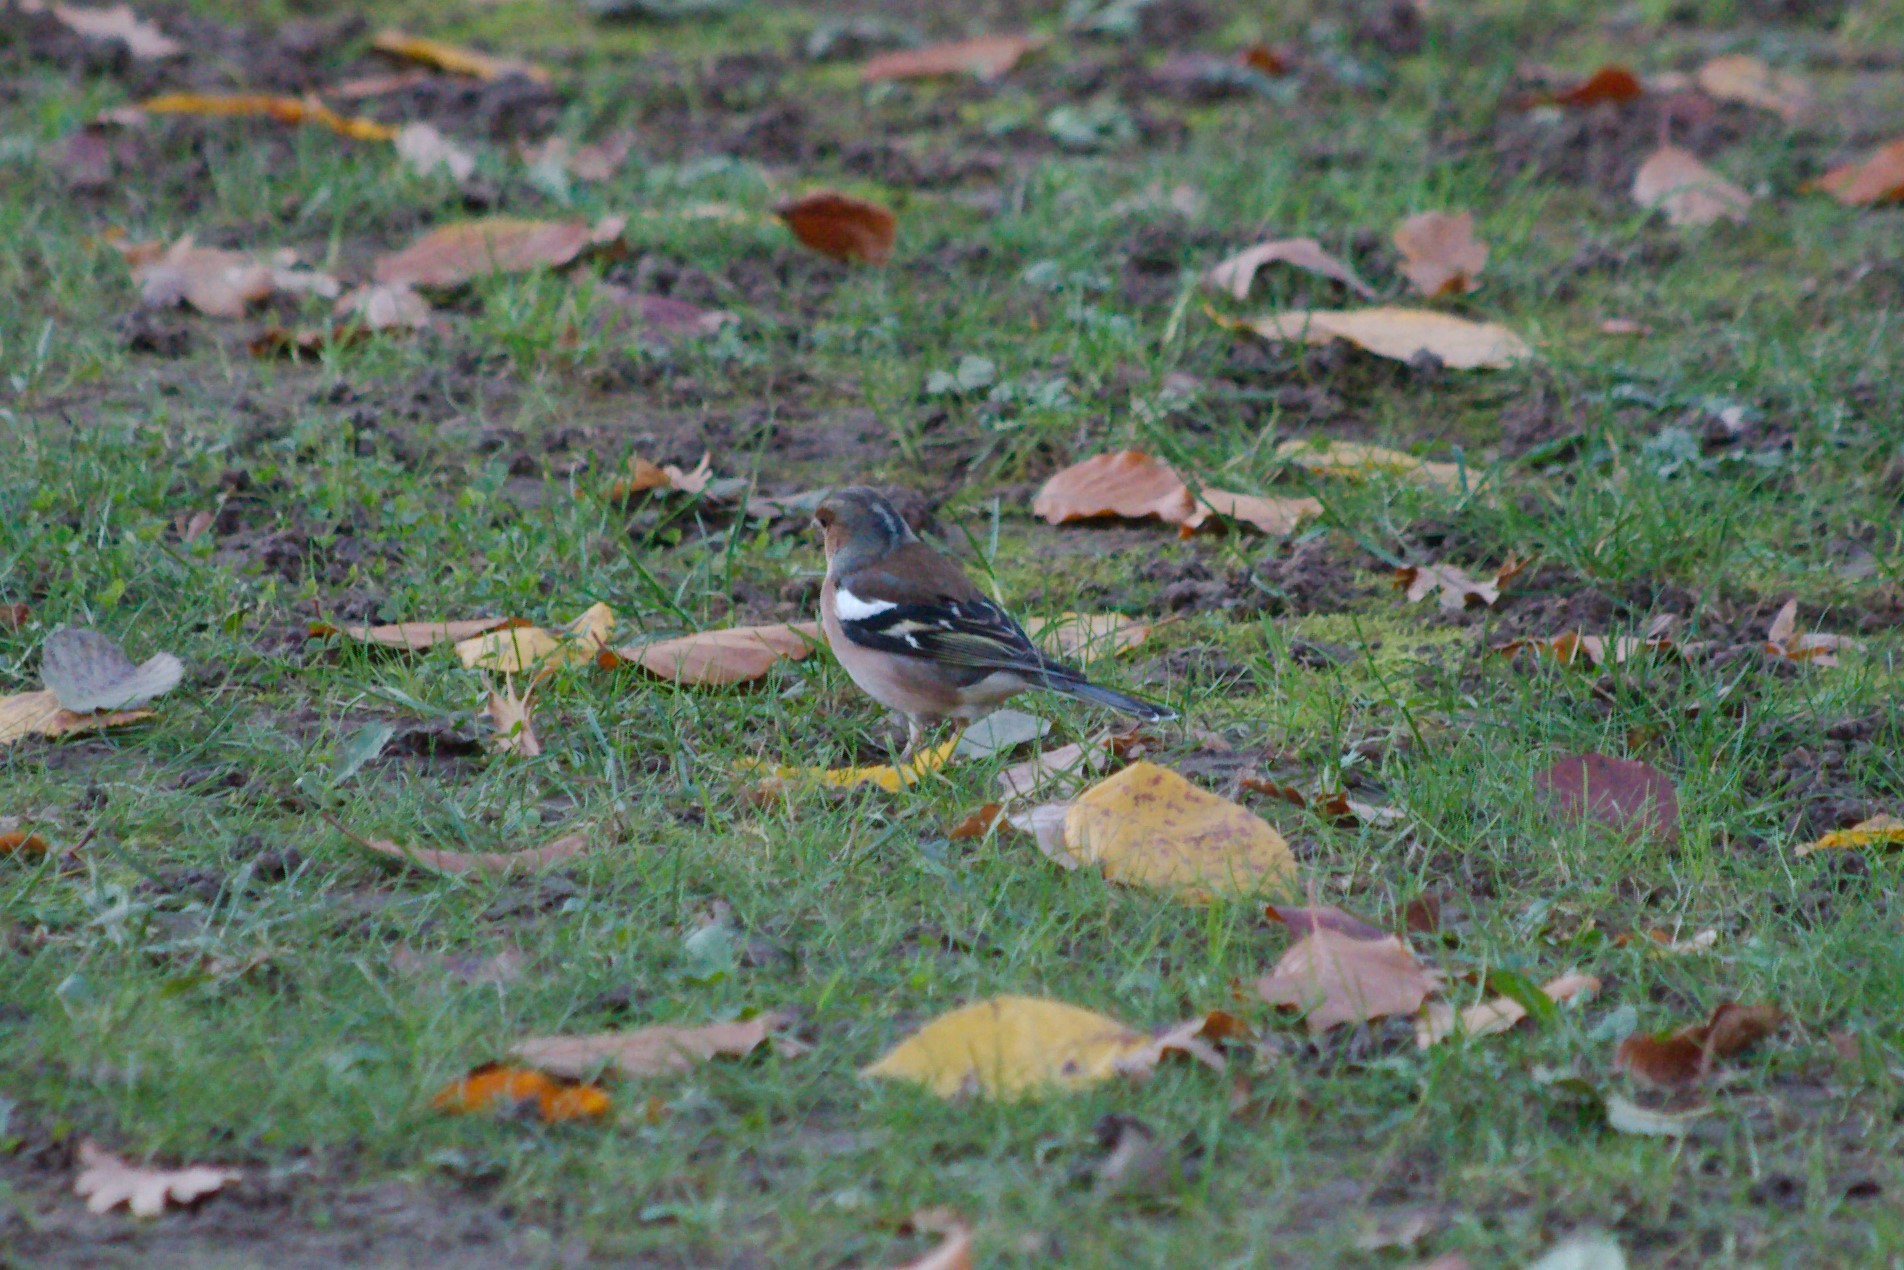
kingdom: Animalia
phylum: Chordata
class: Aves
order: Passeriformes
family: Fringillidae
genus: Fringilla
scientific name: Fringilla coelebs
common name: Common chaffinch
